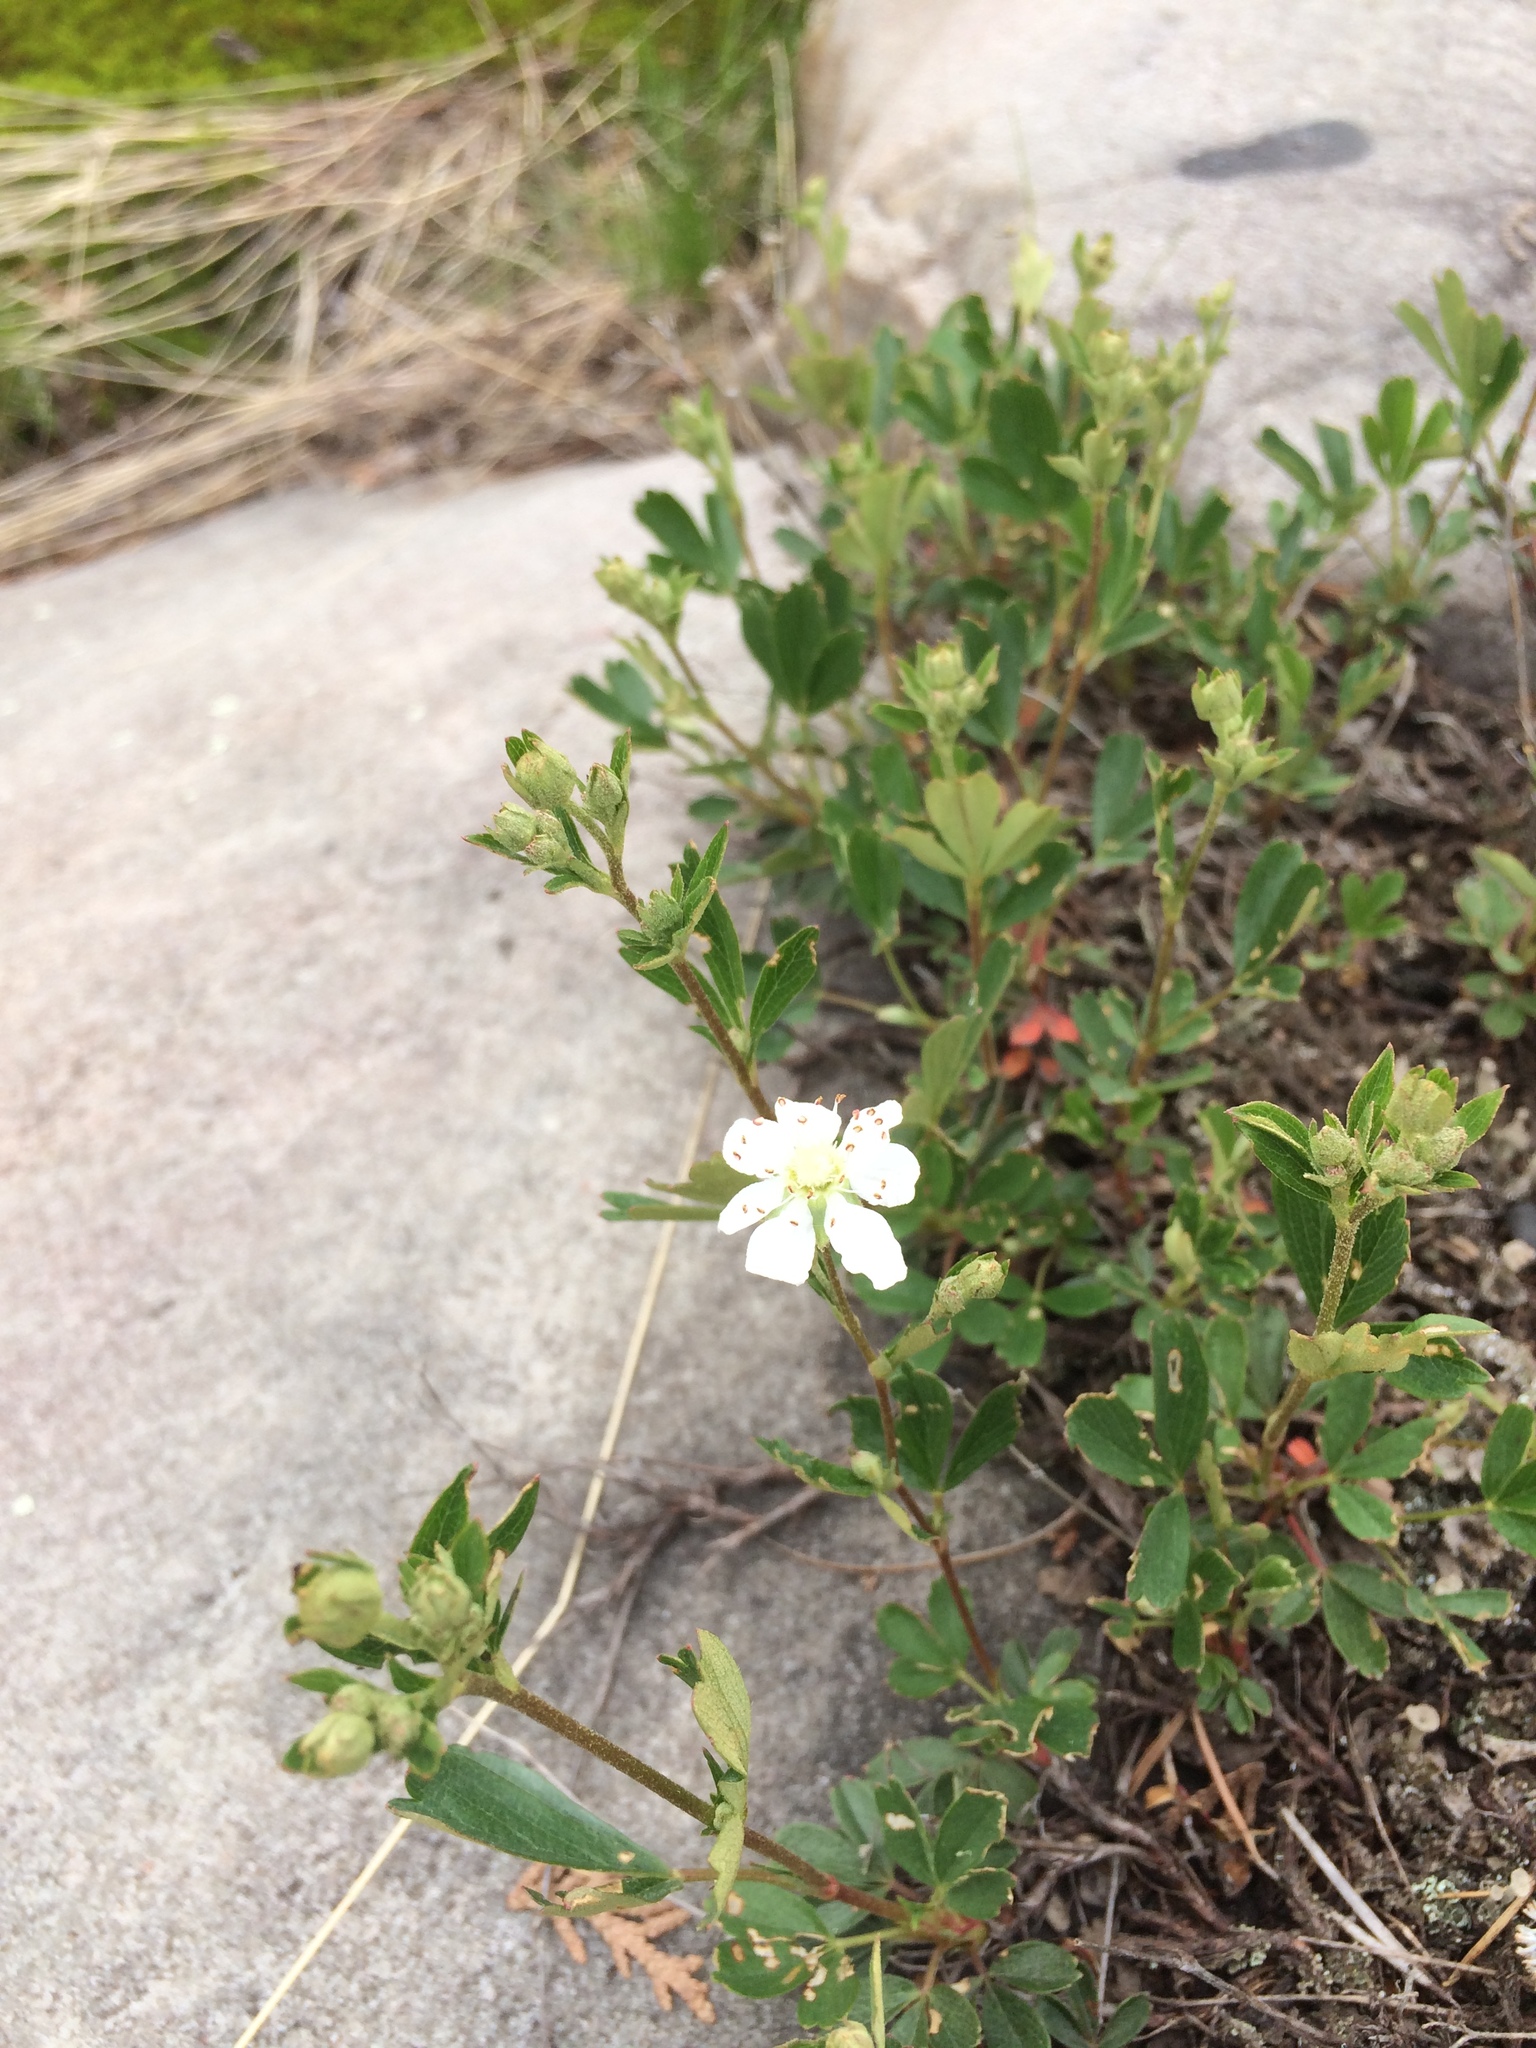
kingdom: Plantae
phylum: Tracheophyta
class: Magnoliopsida
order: Rosales
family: Rosaceae
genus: Sibbaldia
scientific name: Sibbaldia tridentata
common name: Three-toothed cinquefoil
